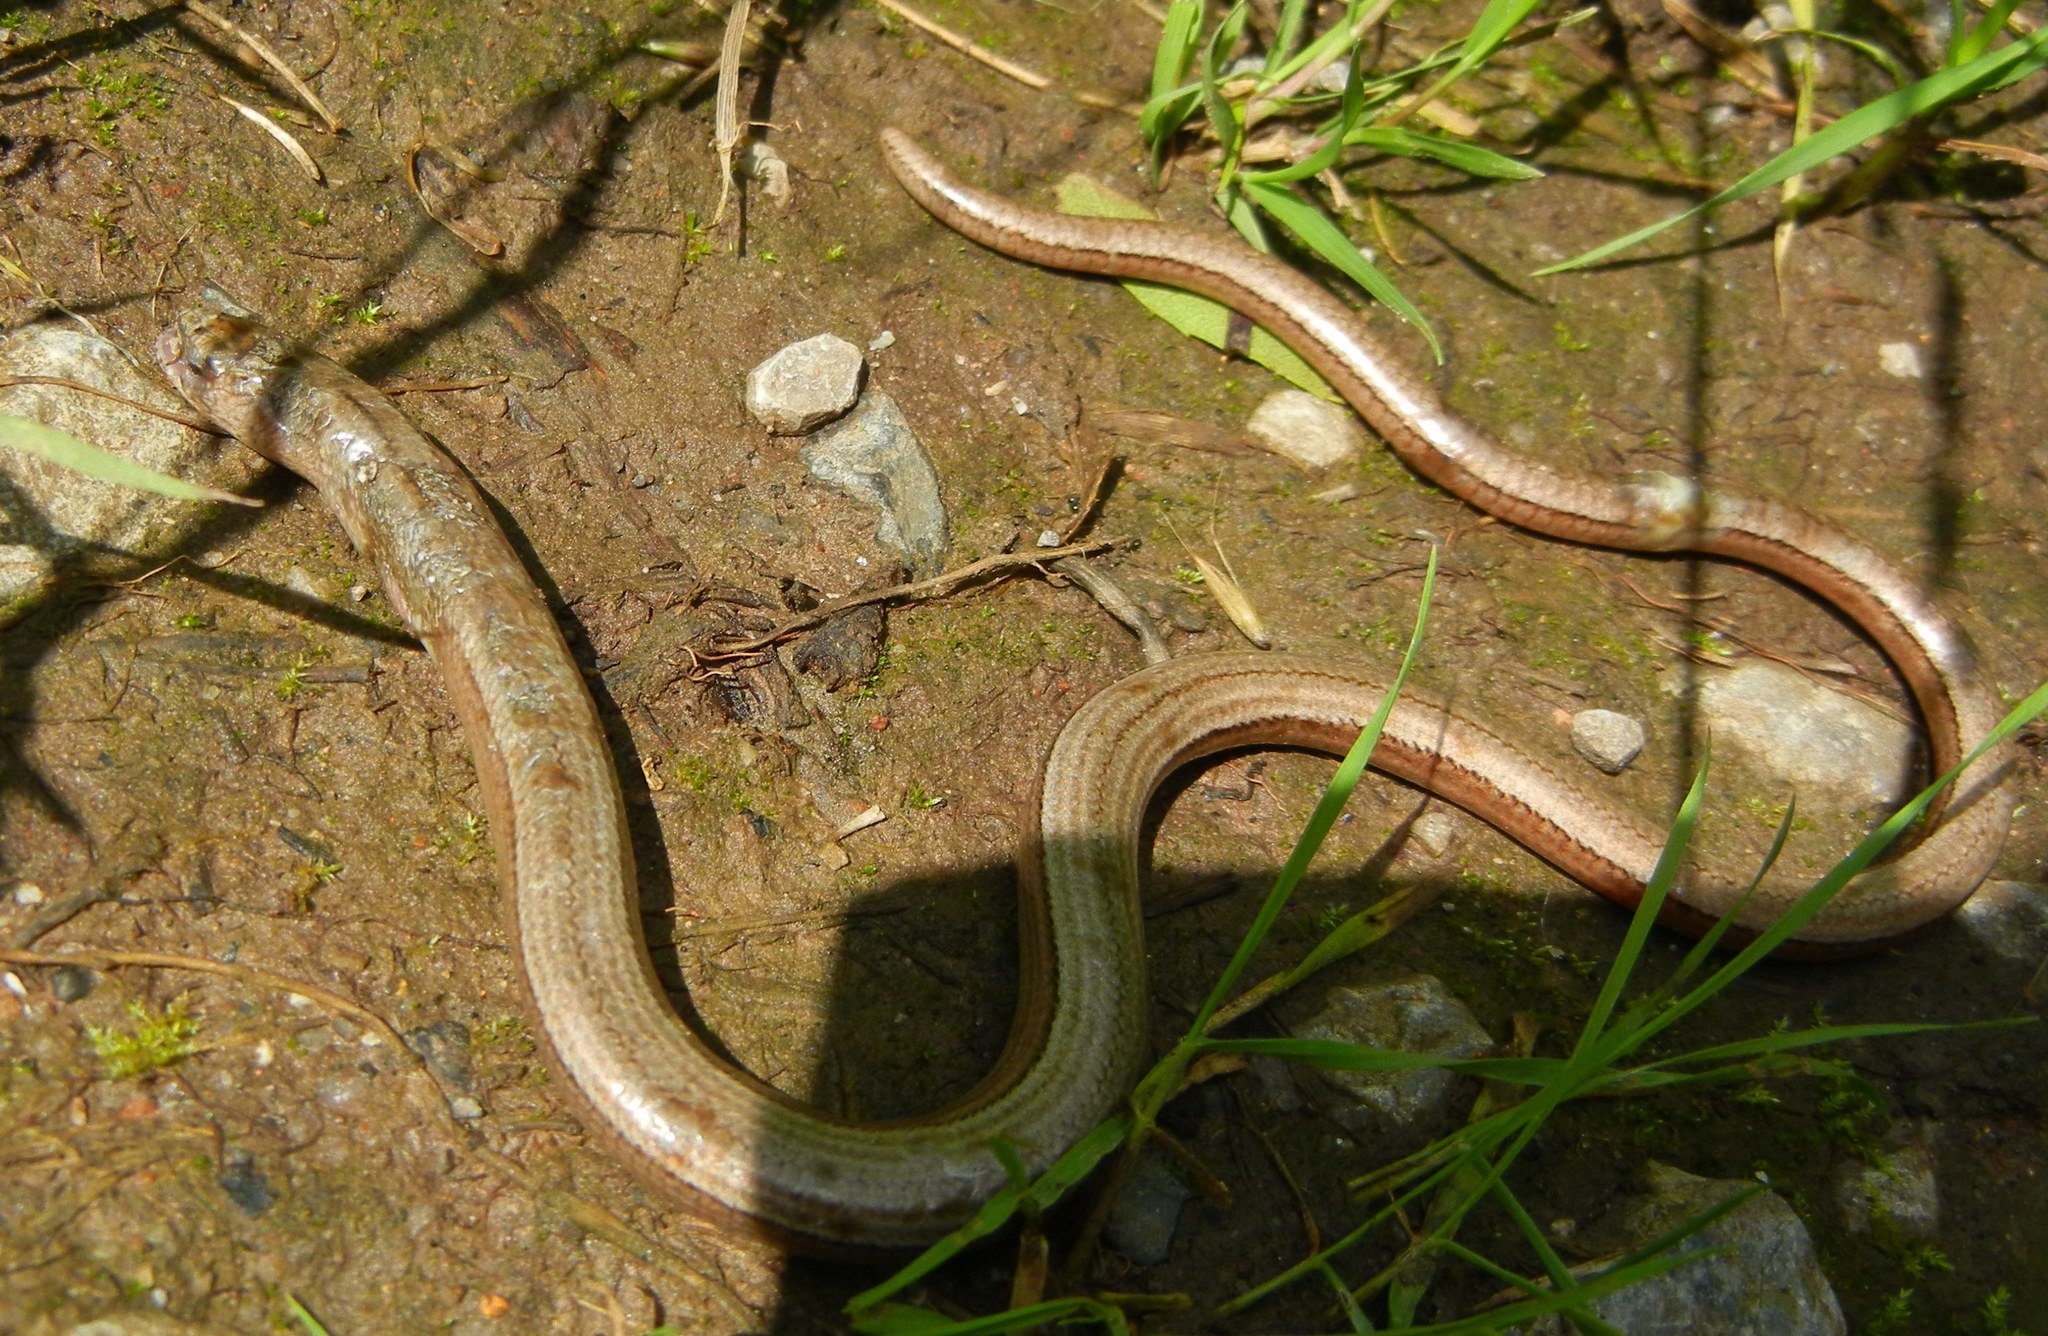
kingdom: Animalia
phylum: Chordata
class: Squamata
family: Anguidae
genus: Anguis
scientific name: Anguis fragilis
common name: Slow worm
